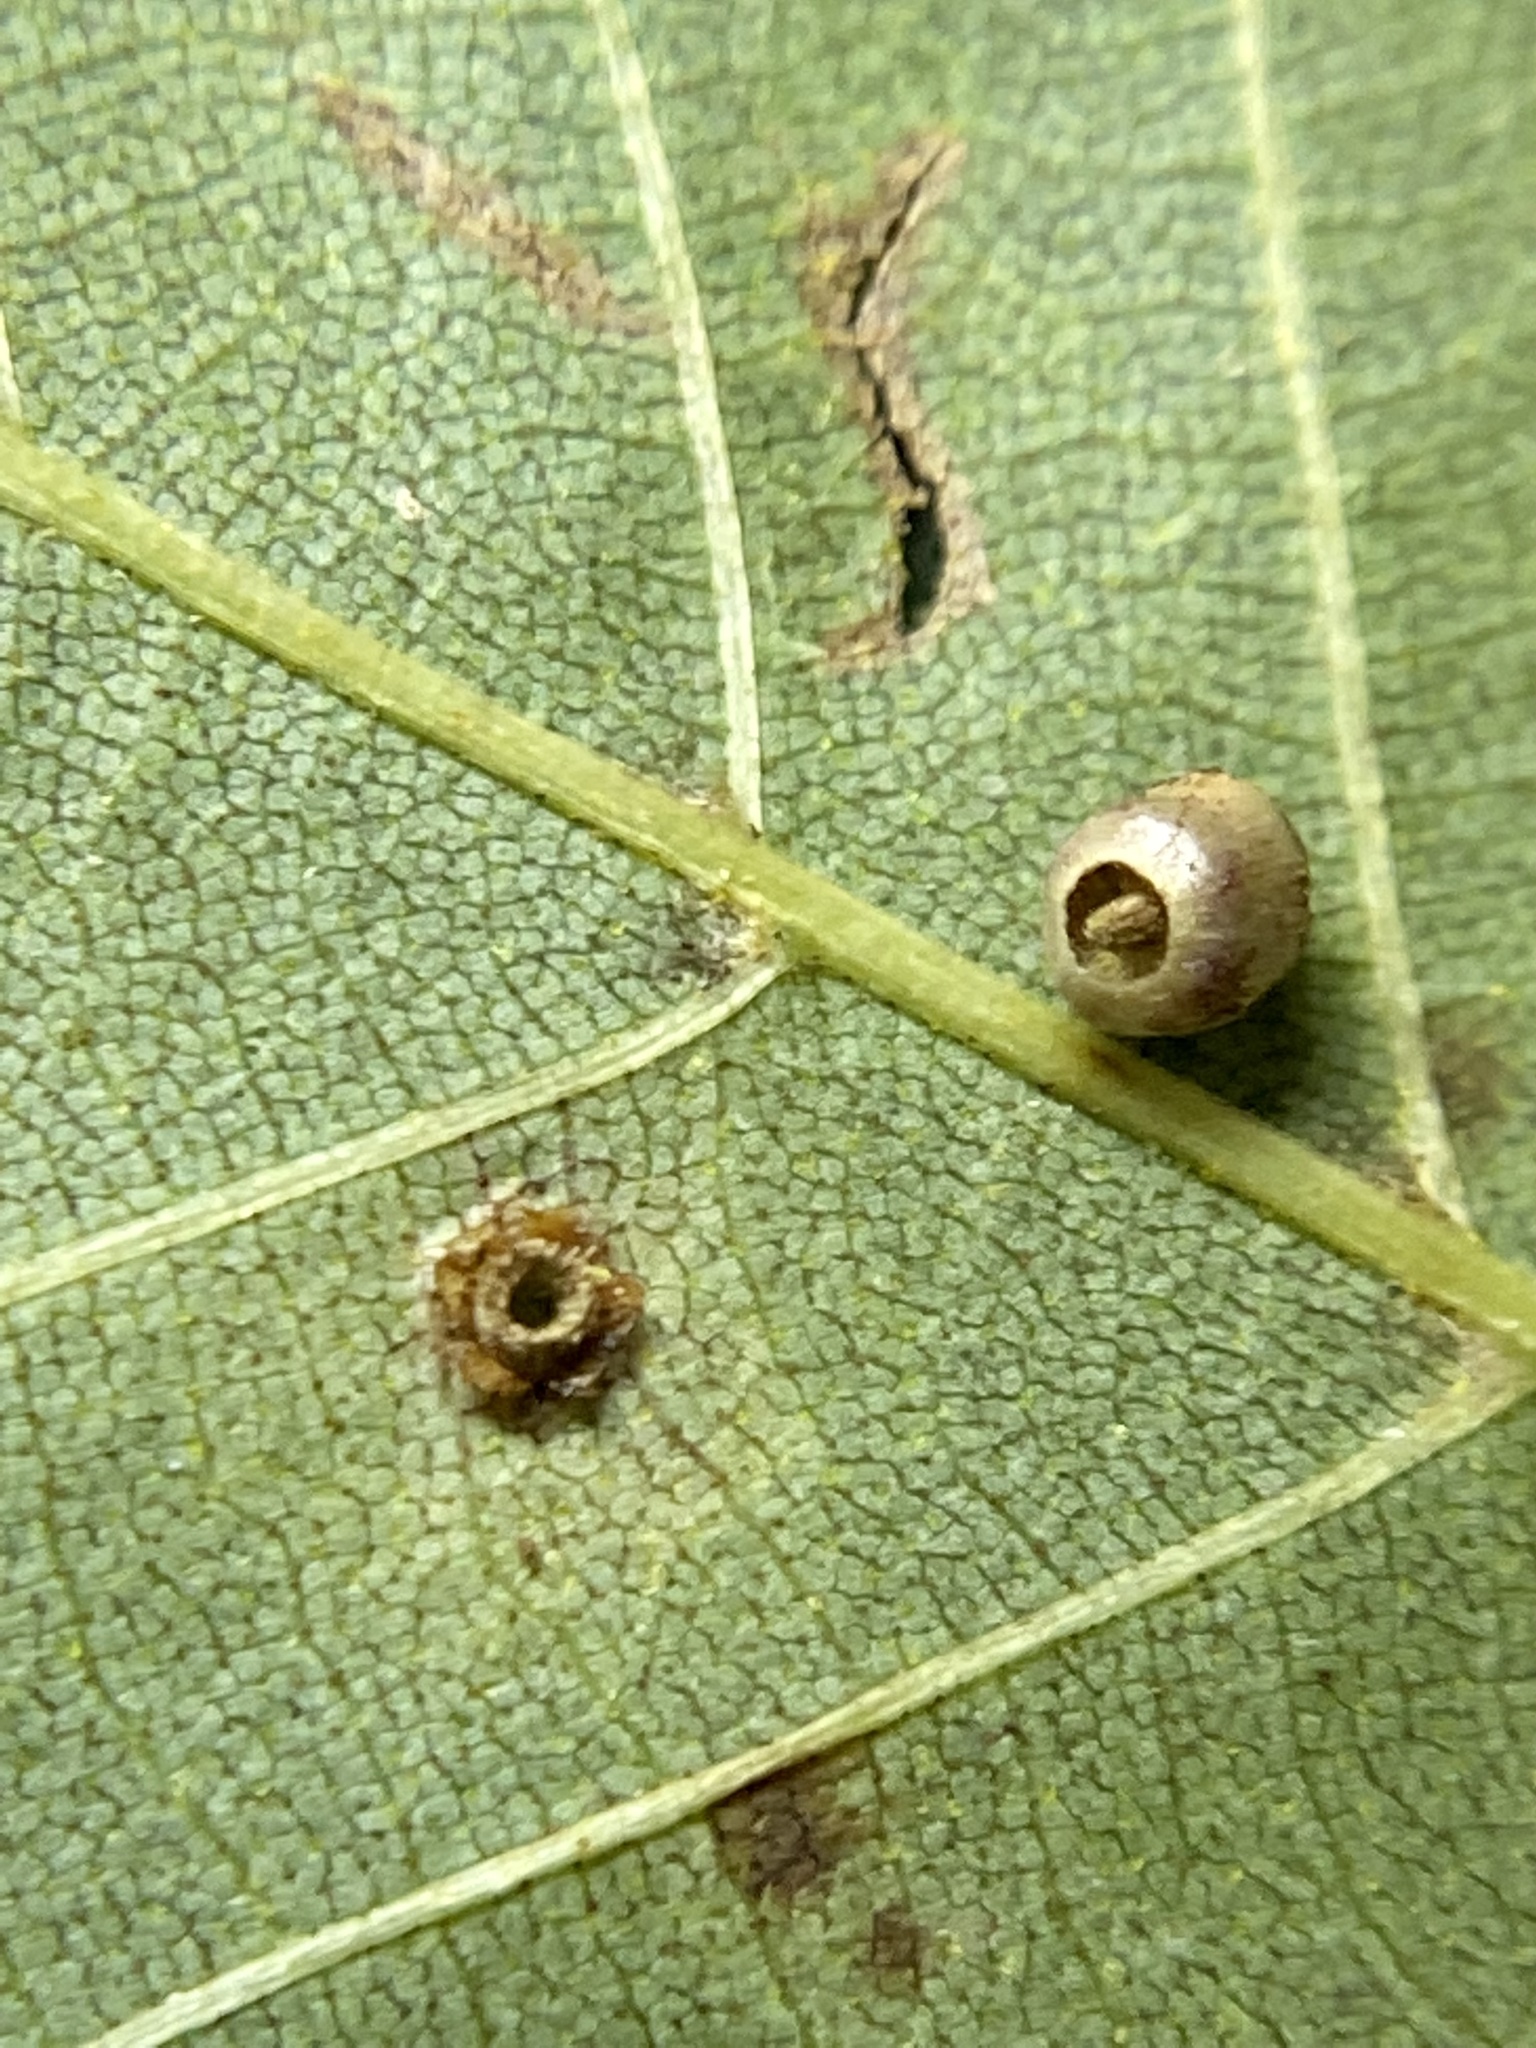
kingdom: Animalia
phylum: Arthropoda
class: Insecta
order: Diptera
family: Cecidomyiidae
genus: Caryomyia
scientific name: Caryomyia caryae
